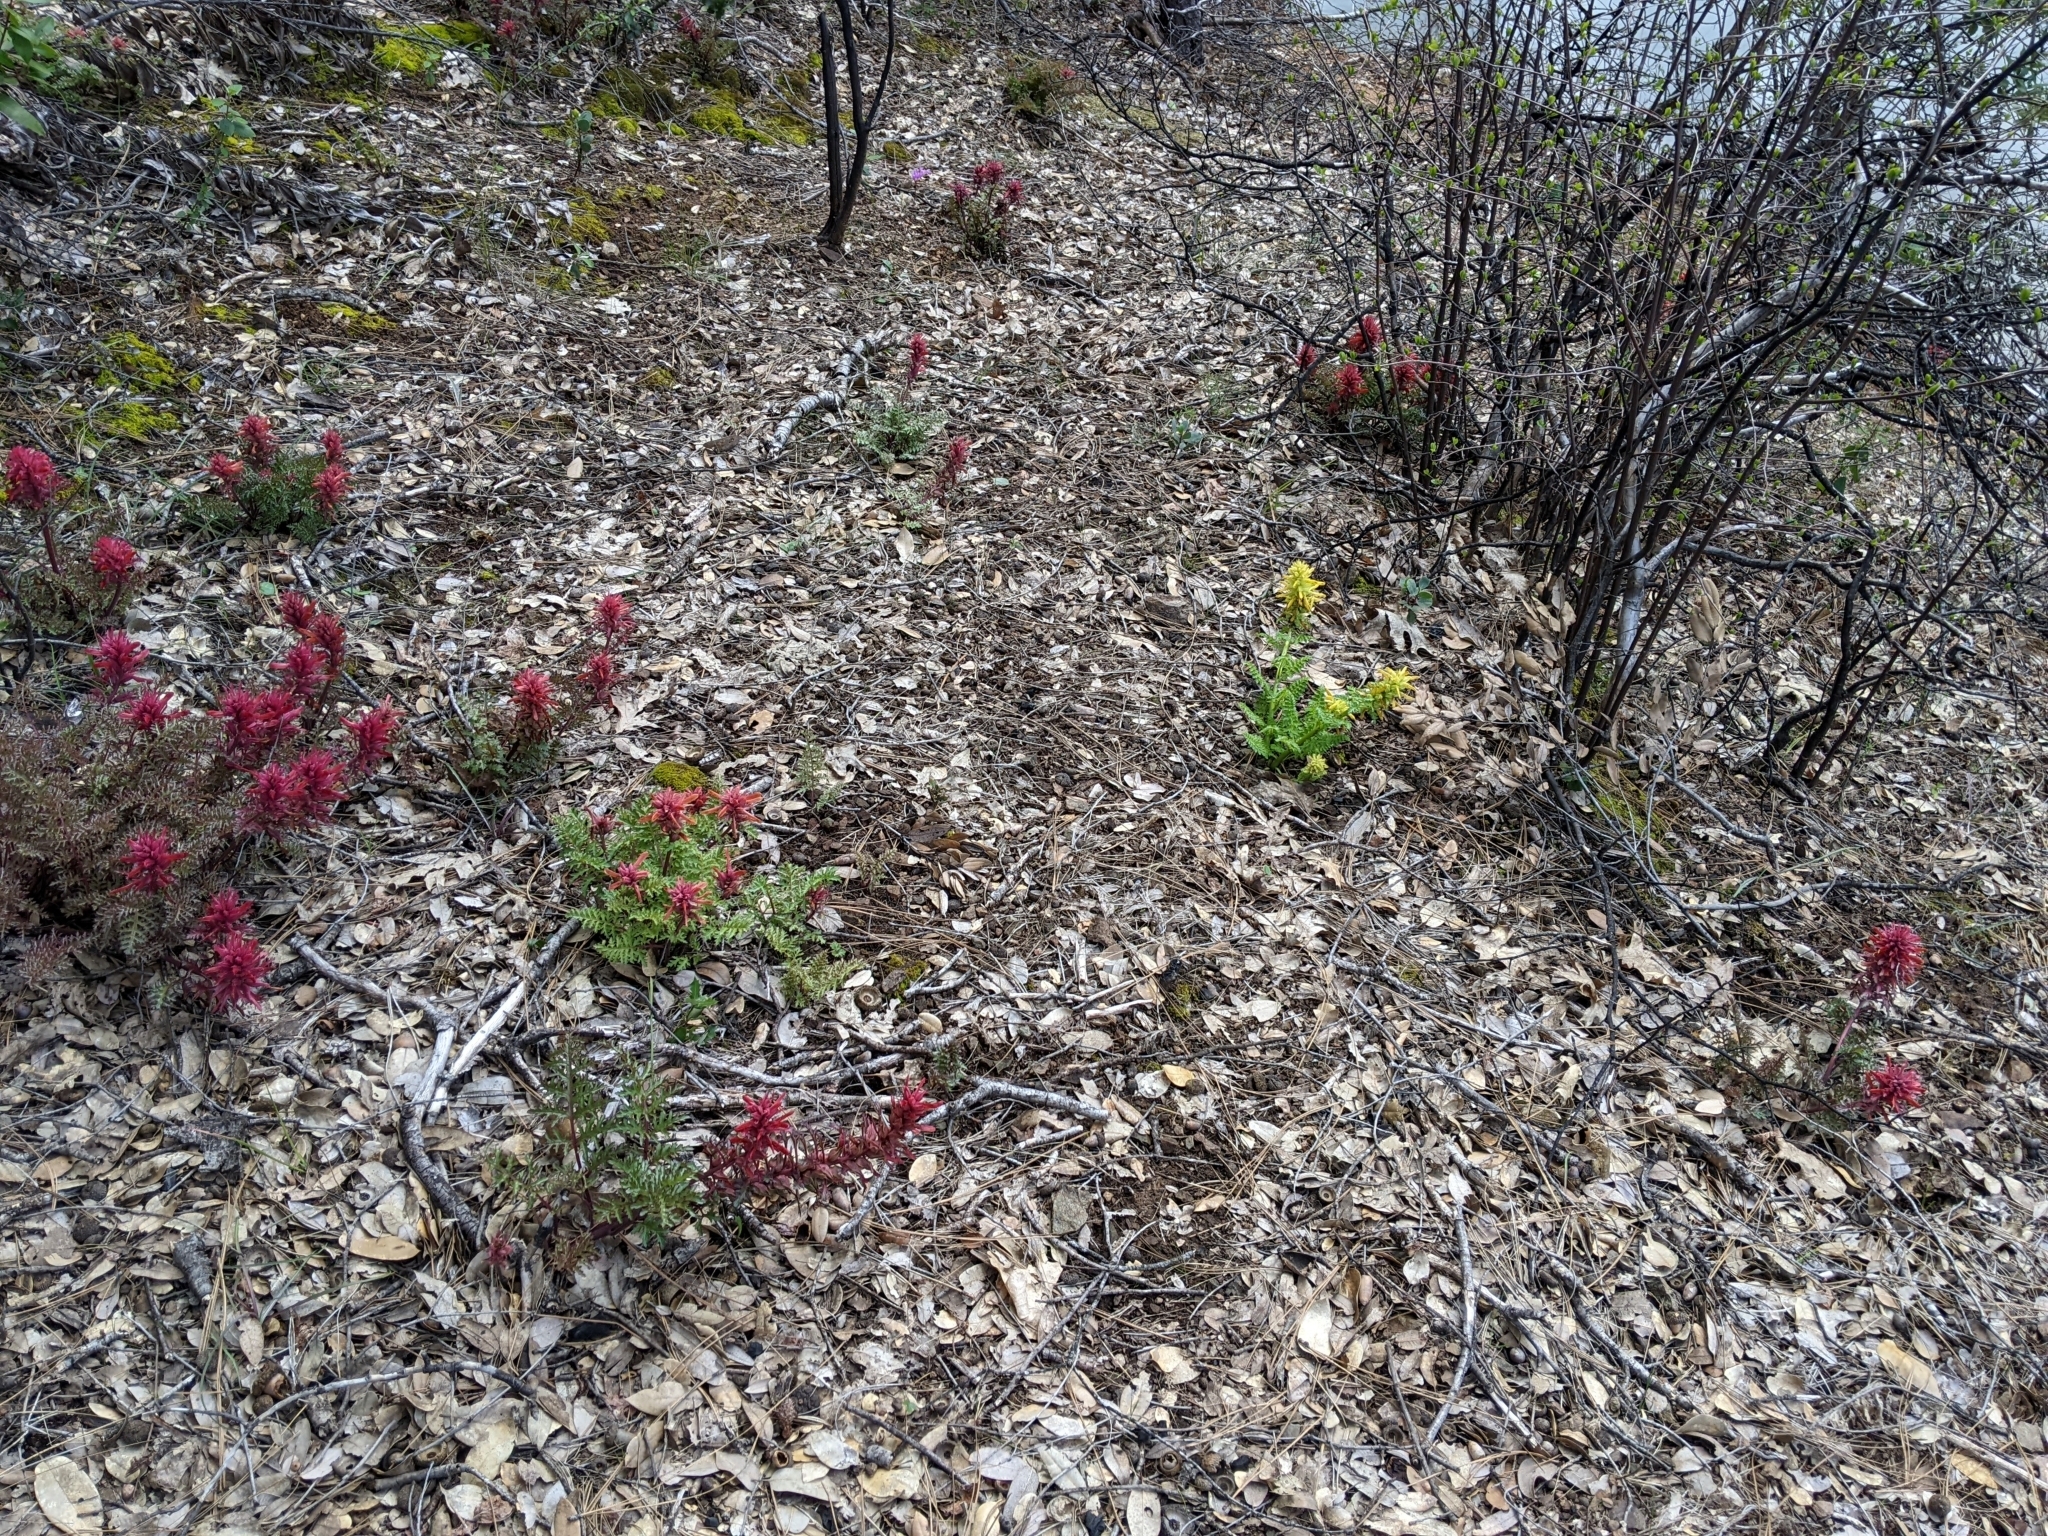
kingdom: Plantae
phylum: Tracheophyta
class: Magnoliopsida
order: Lamiales
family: Orobanchaceae
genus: Pedicularis
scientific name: Pedicularis densiflora
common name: Indian warrior
